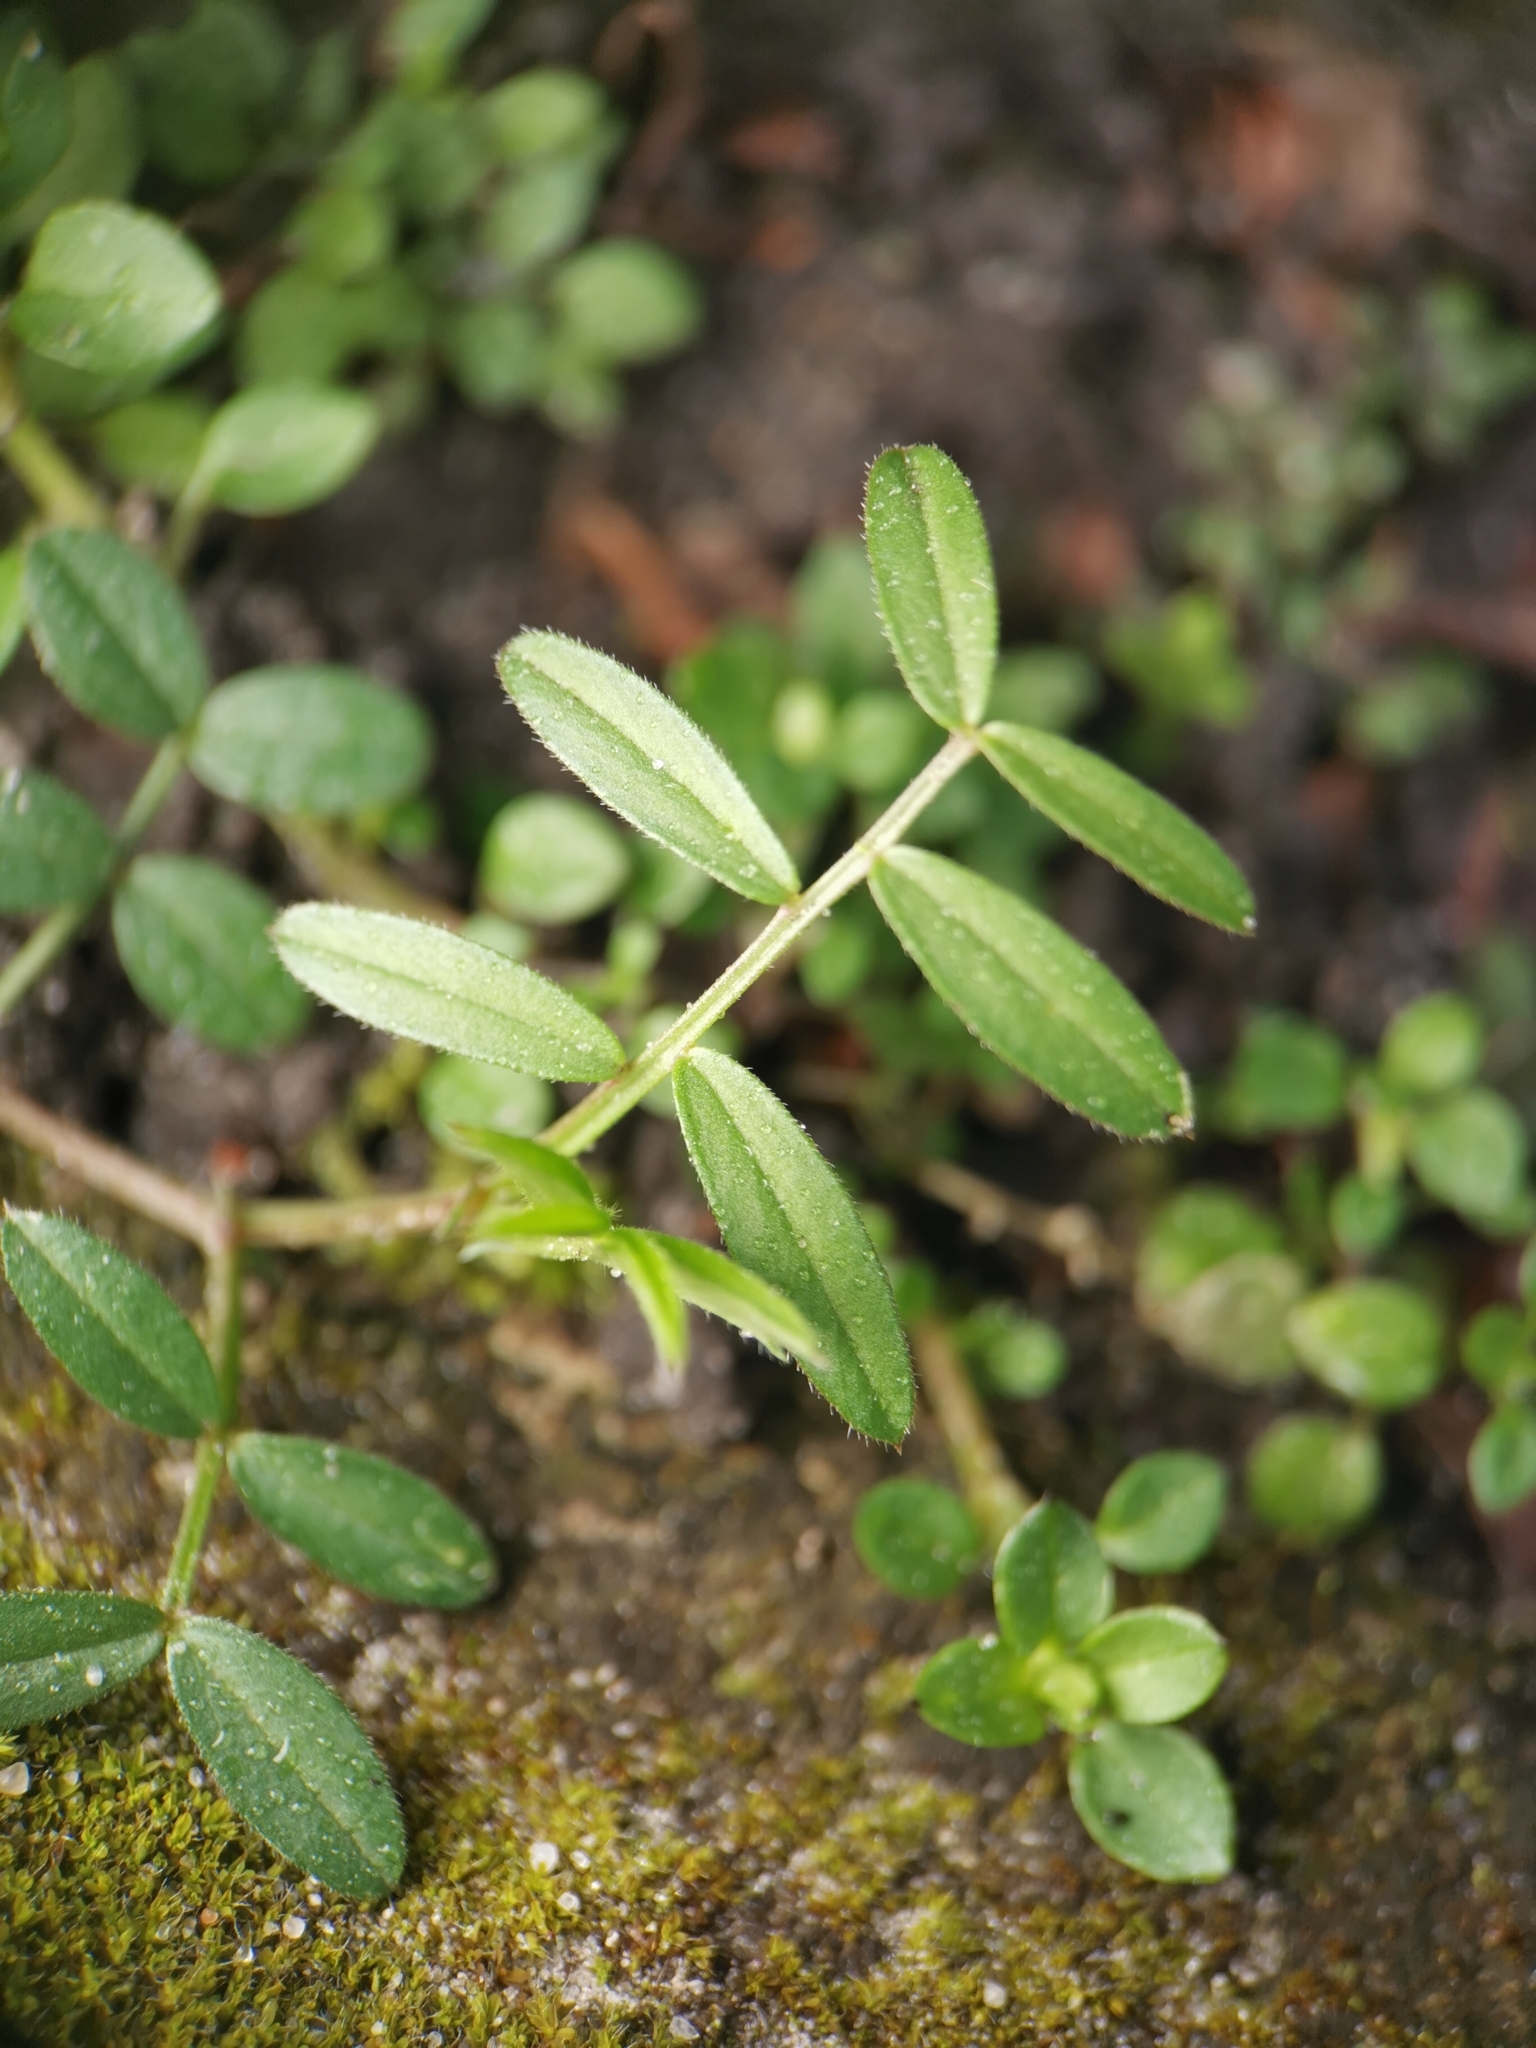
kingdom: Plantae
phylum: Tracheophyta
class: Magnoliopsida
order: Fabales
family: Fabaceae
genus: Vicia
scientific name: Vicia lathyroides
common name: Spring vetch
